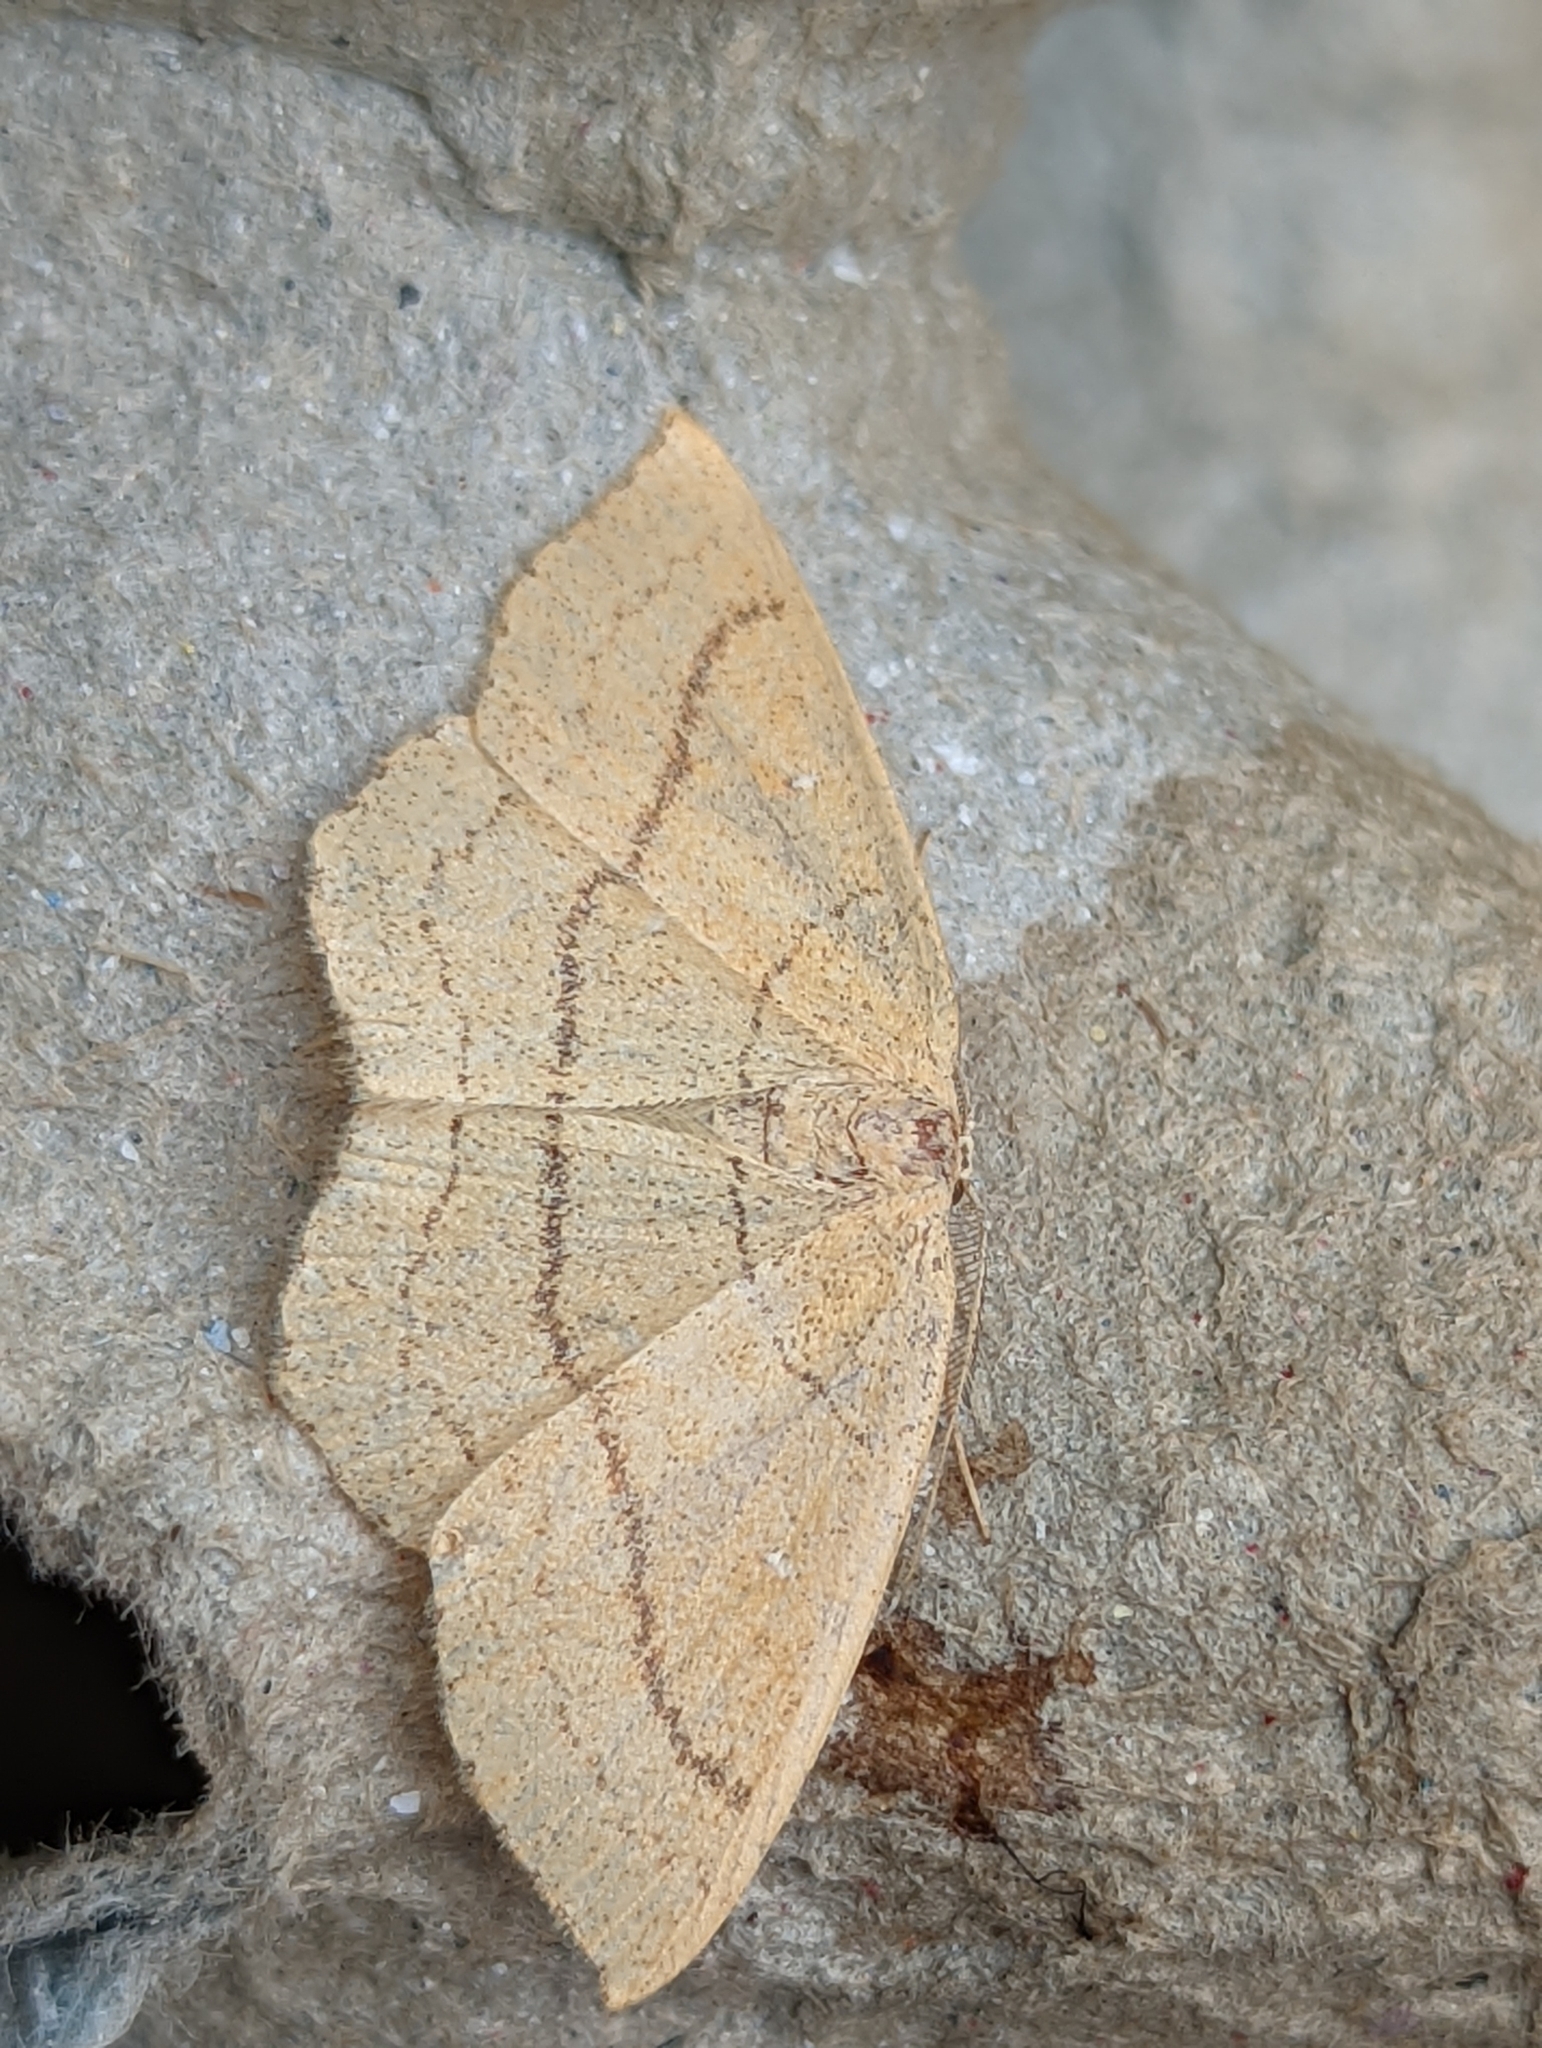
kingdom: Animalia
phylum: Arthropoda
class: Insecta
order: Lepidoptera
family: Geometridae
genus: Cyclophora
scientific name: Cyclophora linearia
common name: Clay triple-lines
